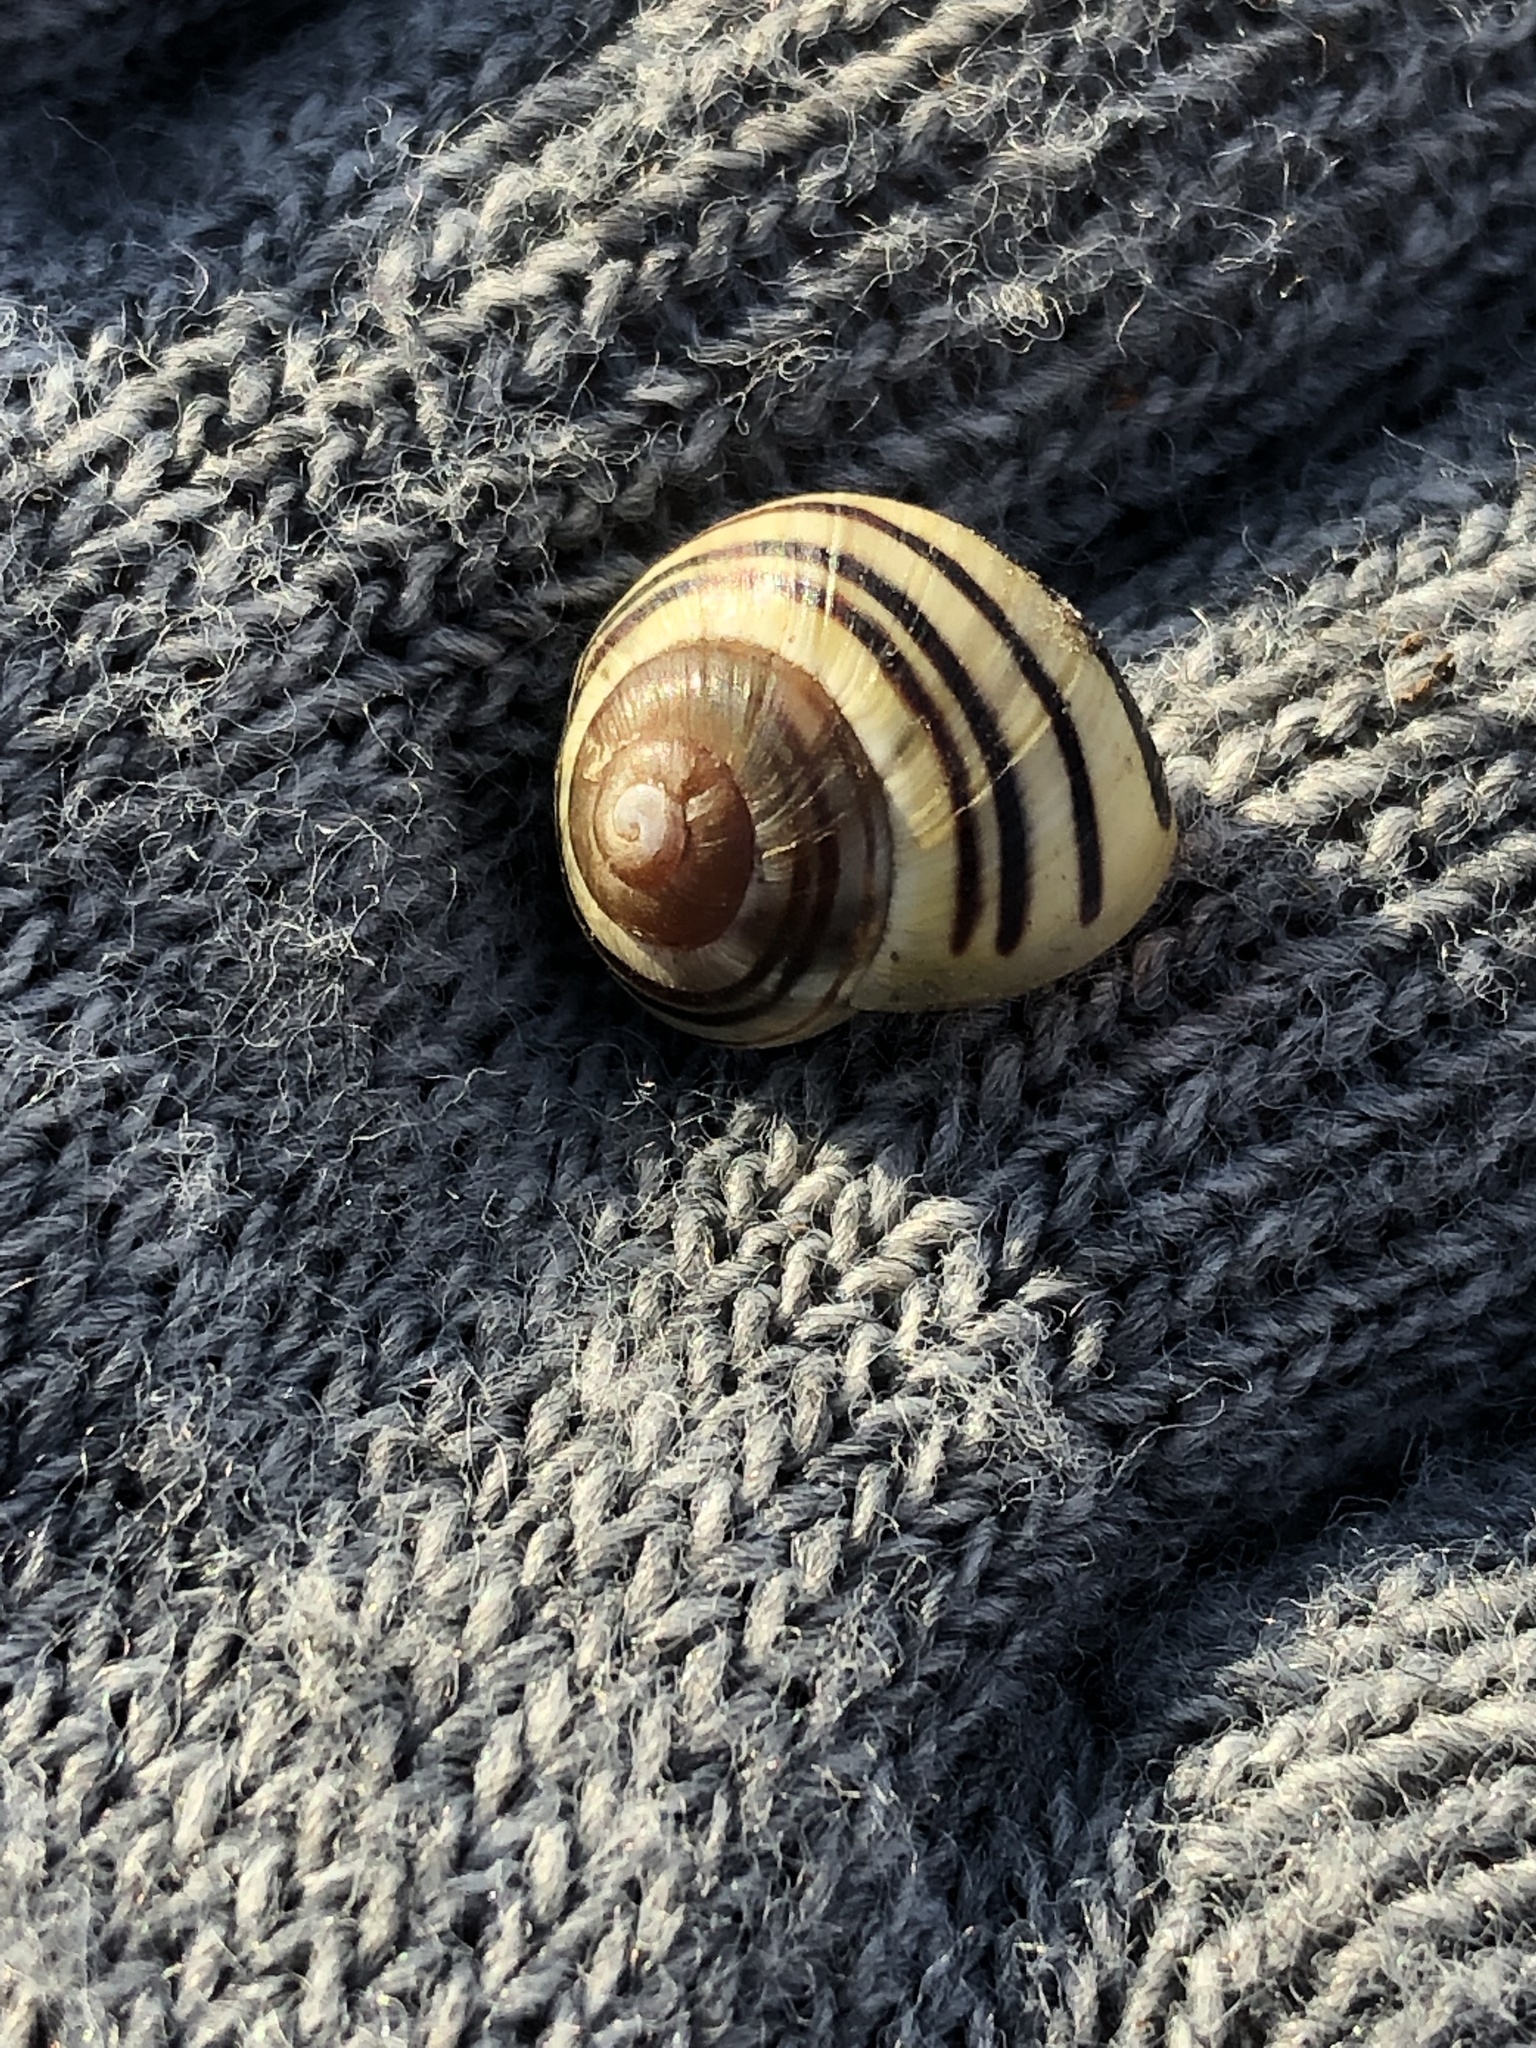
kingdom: Animalia
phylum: Mollusca
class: Gastropoda
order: Stylommatophora
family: Helicidae
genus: Cepaea
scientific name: Cepaea
